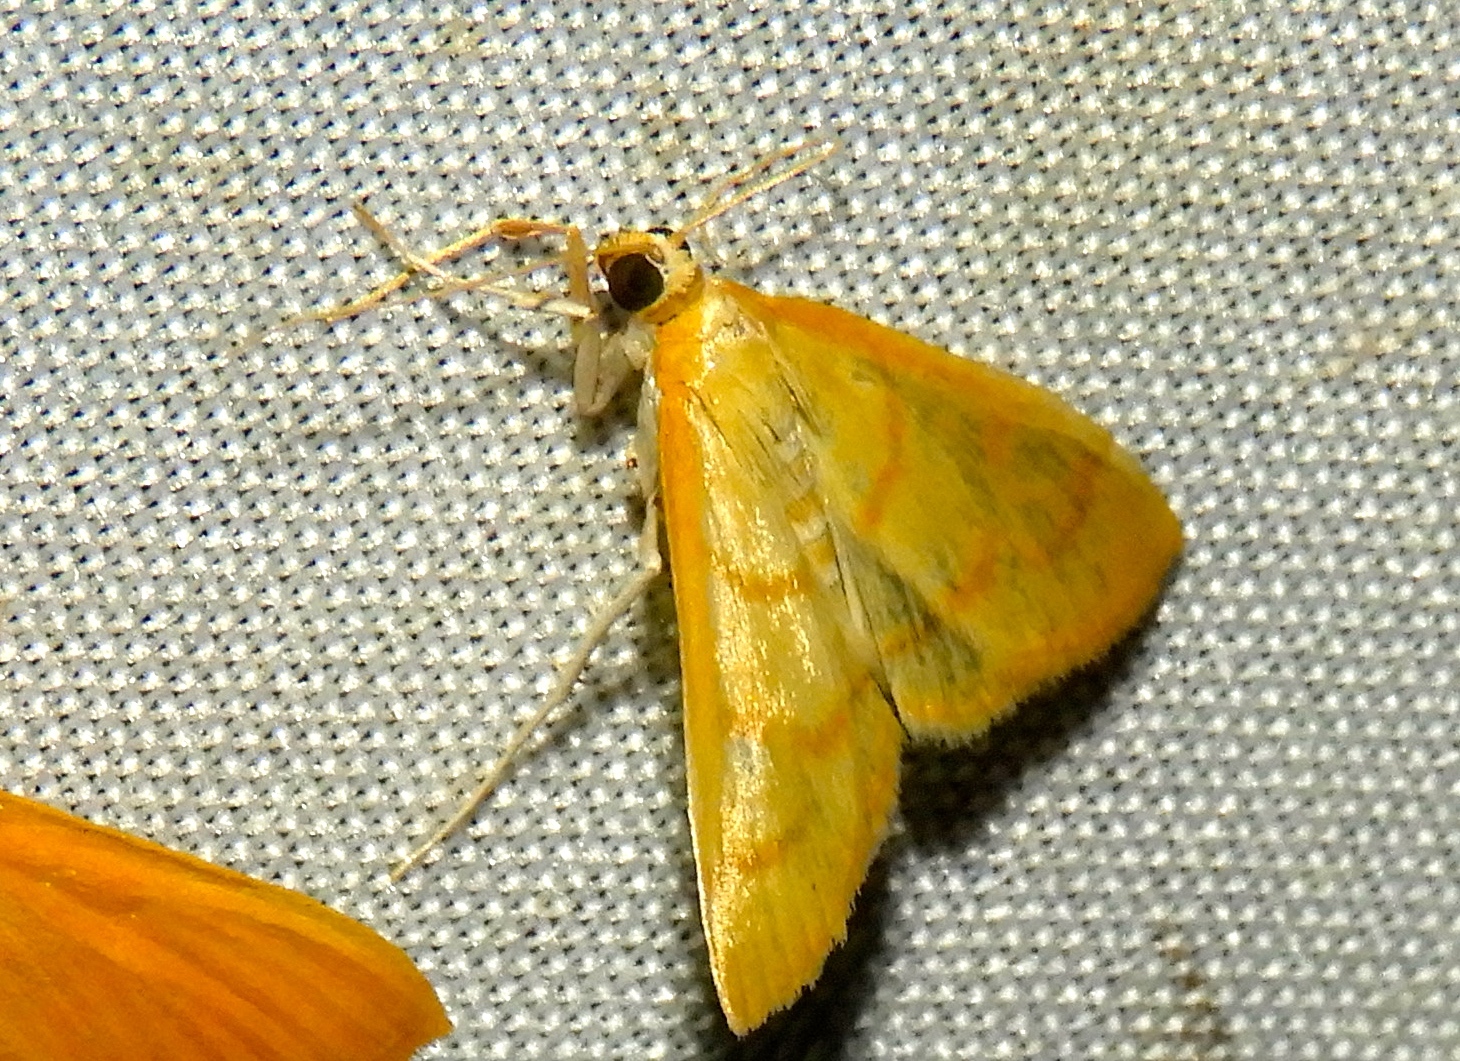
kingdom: Animalia
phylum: Arthropoda
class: Insecta
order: Lepidoptera
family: Crambidae
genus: Neohelvibotys
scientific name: Neohelvibotys
